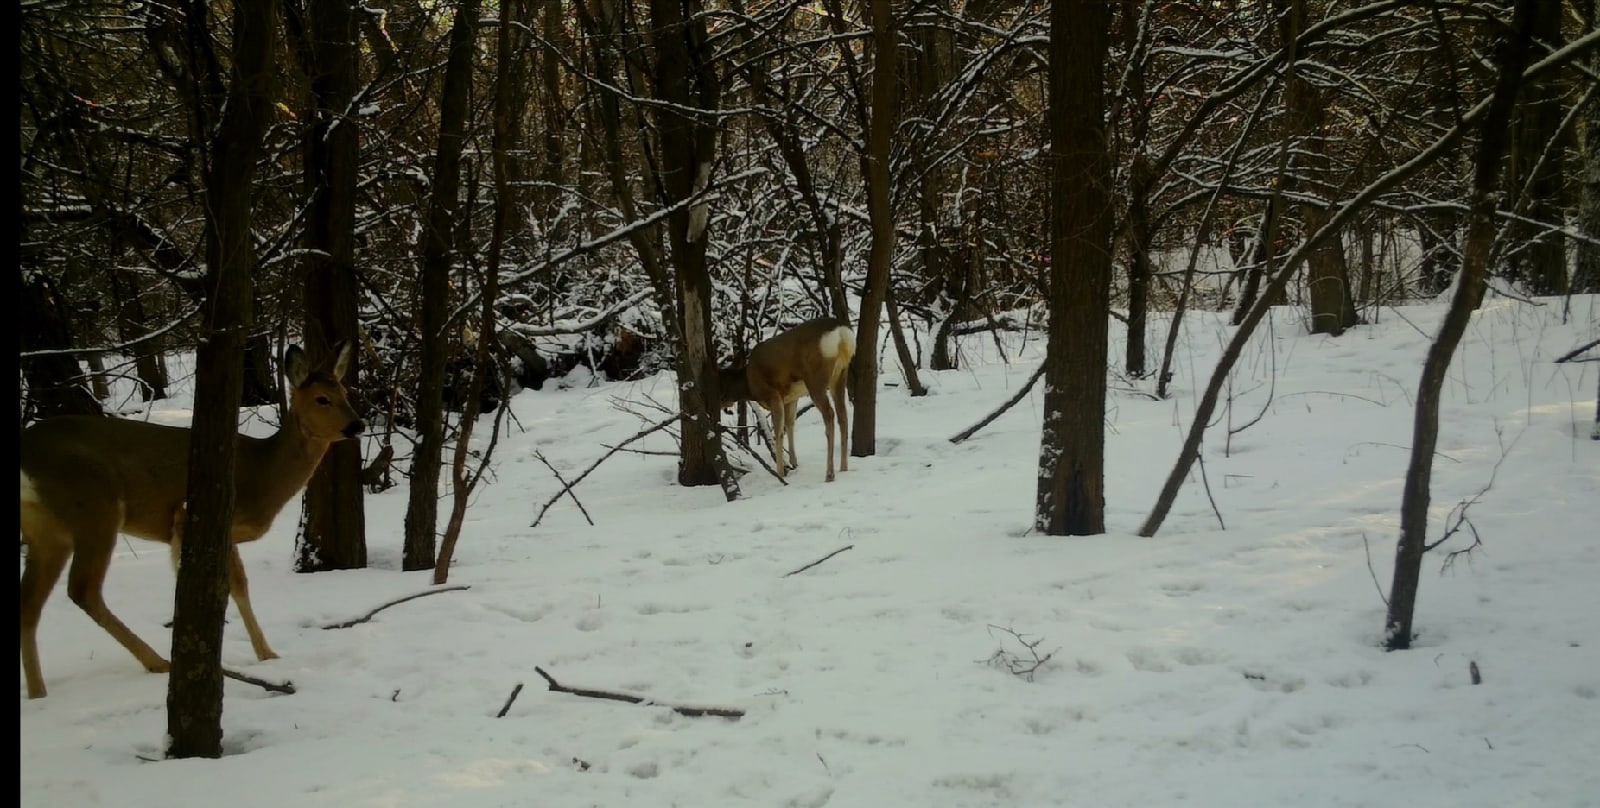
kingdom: Animalia
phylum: Chordata
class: Mammalia
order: Artiodactyla
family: Cervidae
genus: Capreolus
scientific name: Capreolus pygargus
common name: Siberian roe
